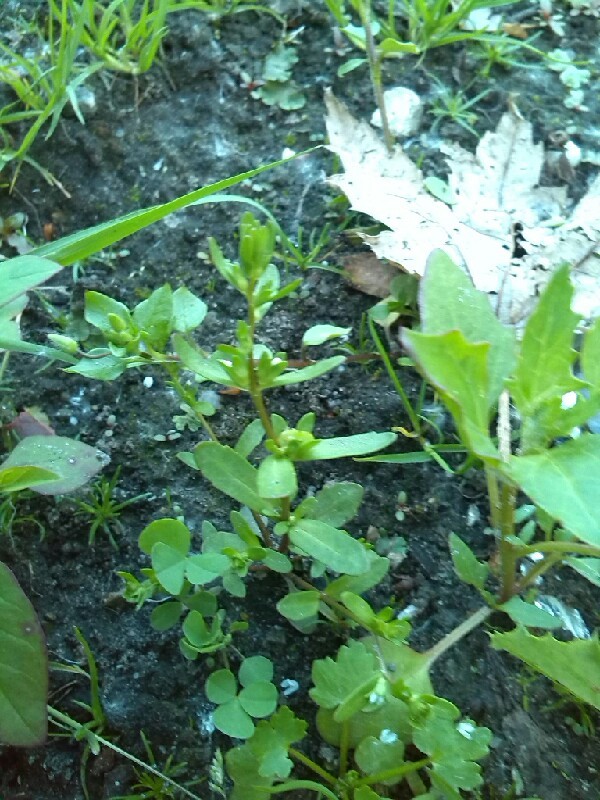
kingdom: Plantae
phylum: Tracheophyta
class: Magnoliopsida
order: Lamiales
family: Plantaginaceae
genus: Veronica
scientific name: Veronica peregrina
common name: Neckweed
